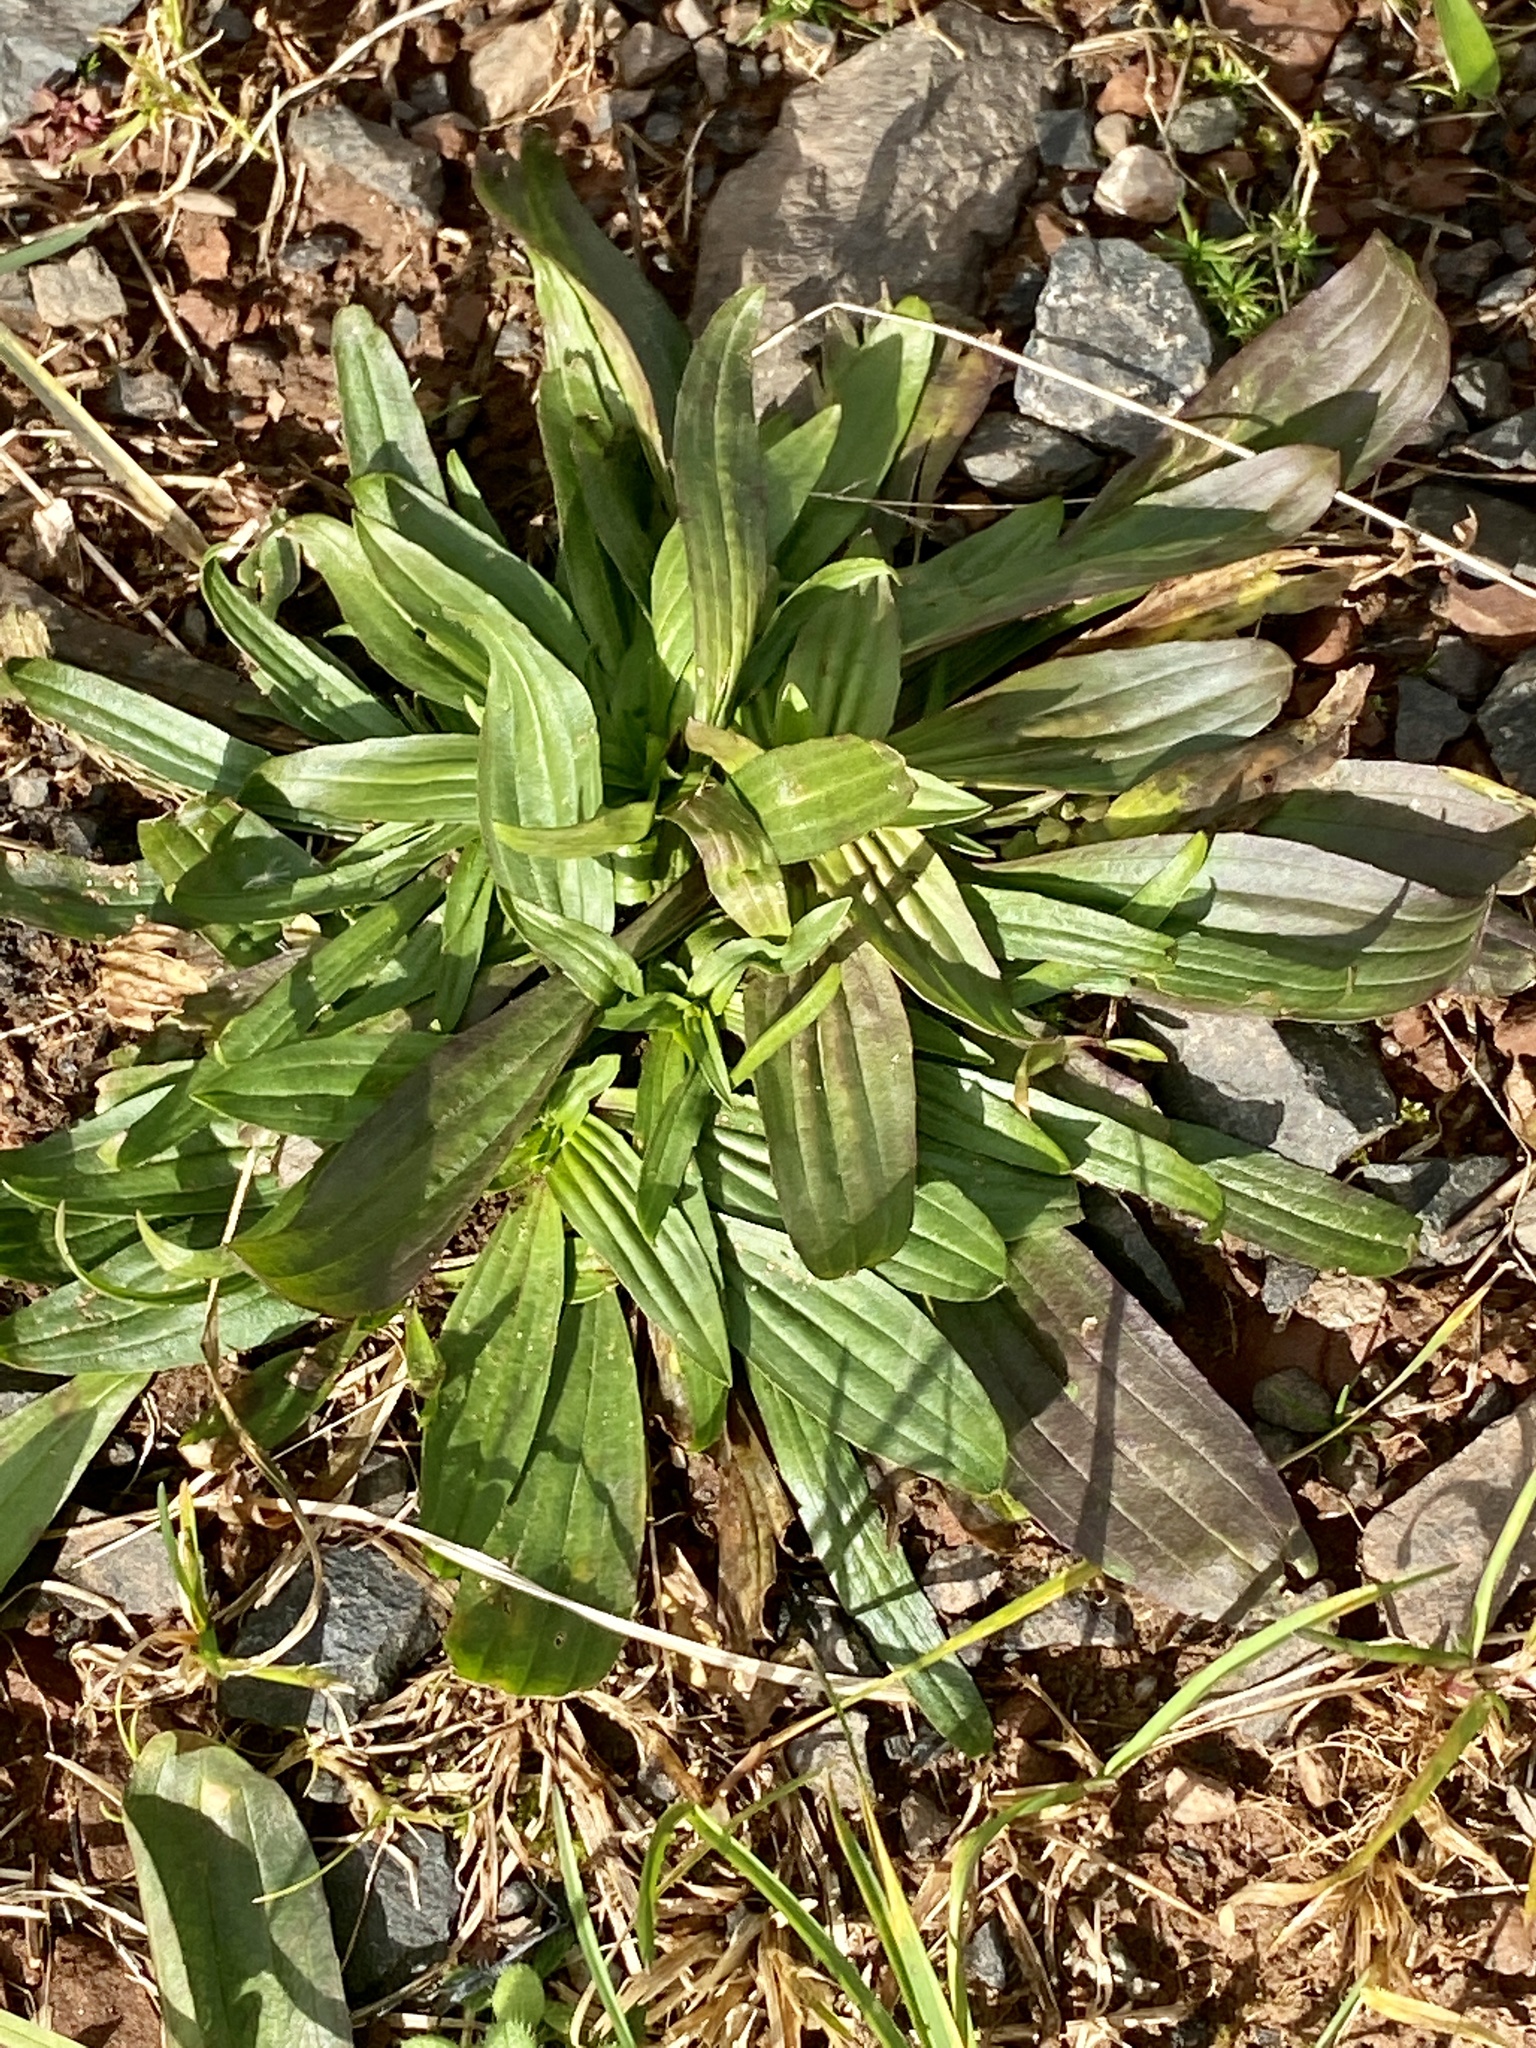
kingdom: Plantae
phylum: Tracheophyta
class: Magnoliopsida
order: Lamiales
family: Plantaginaceae
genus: Plantago
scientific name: Plantago lanceolata
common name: Ribwort plantain
